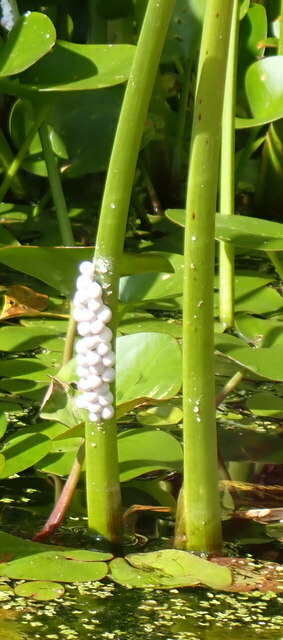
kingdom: Animalia
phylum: Mollusca
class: Gastropoda
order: Architaenioglossa
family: Ampullariidae
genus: Pomacea
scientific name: Pomacea paludosa
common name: Florida applesnail
